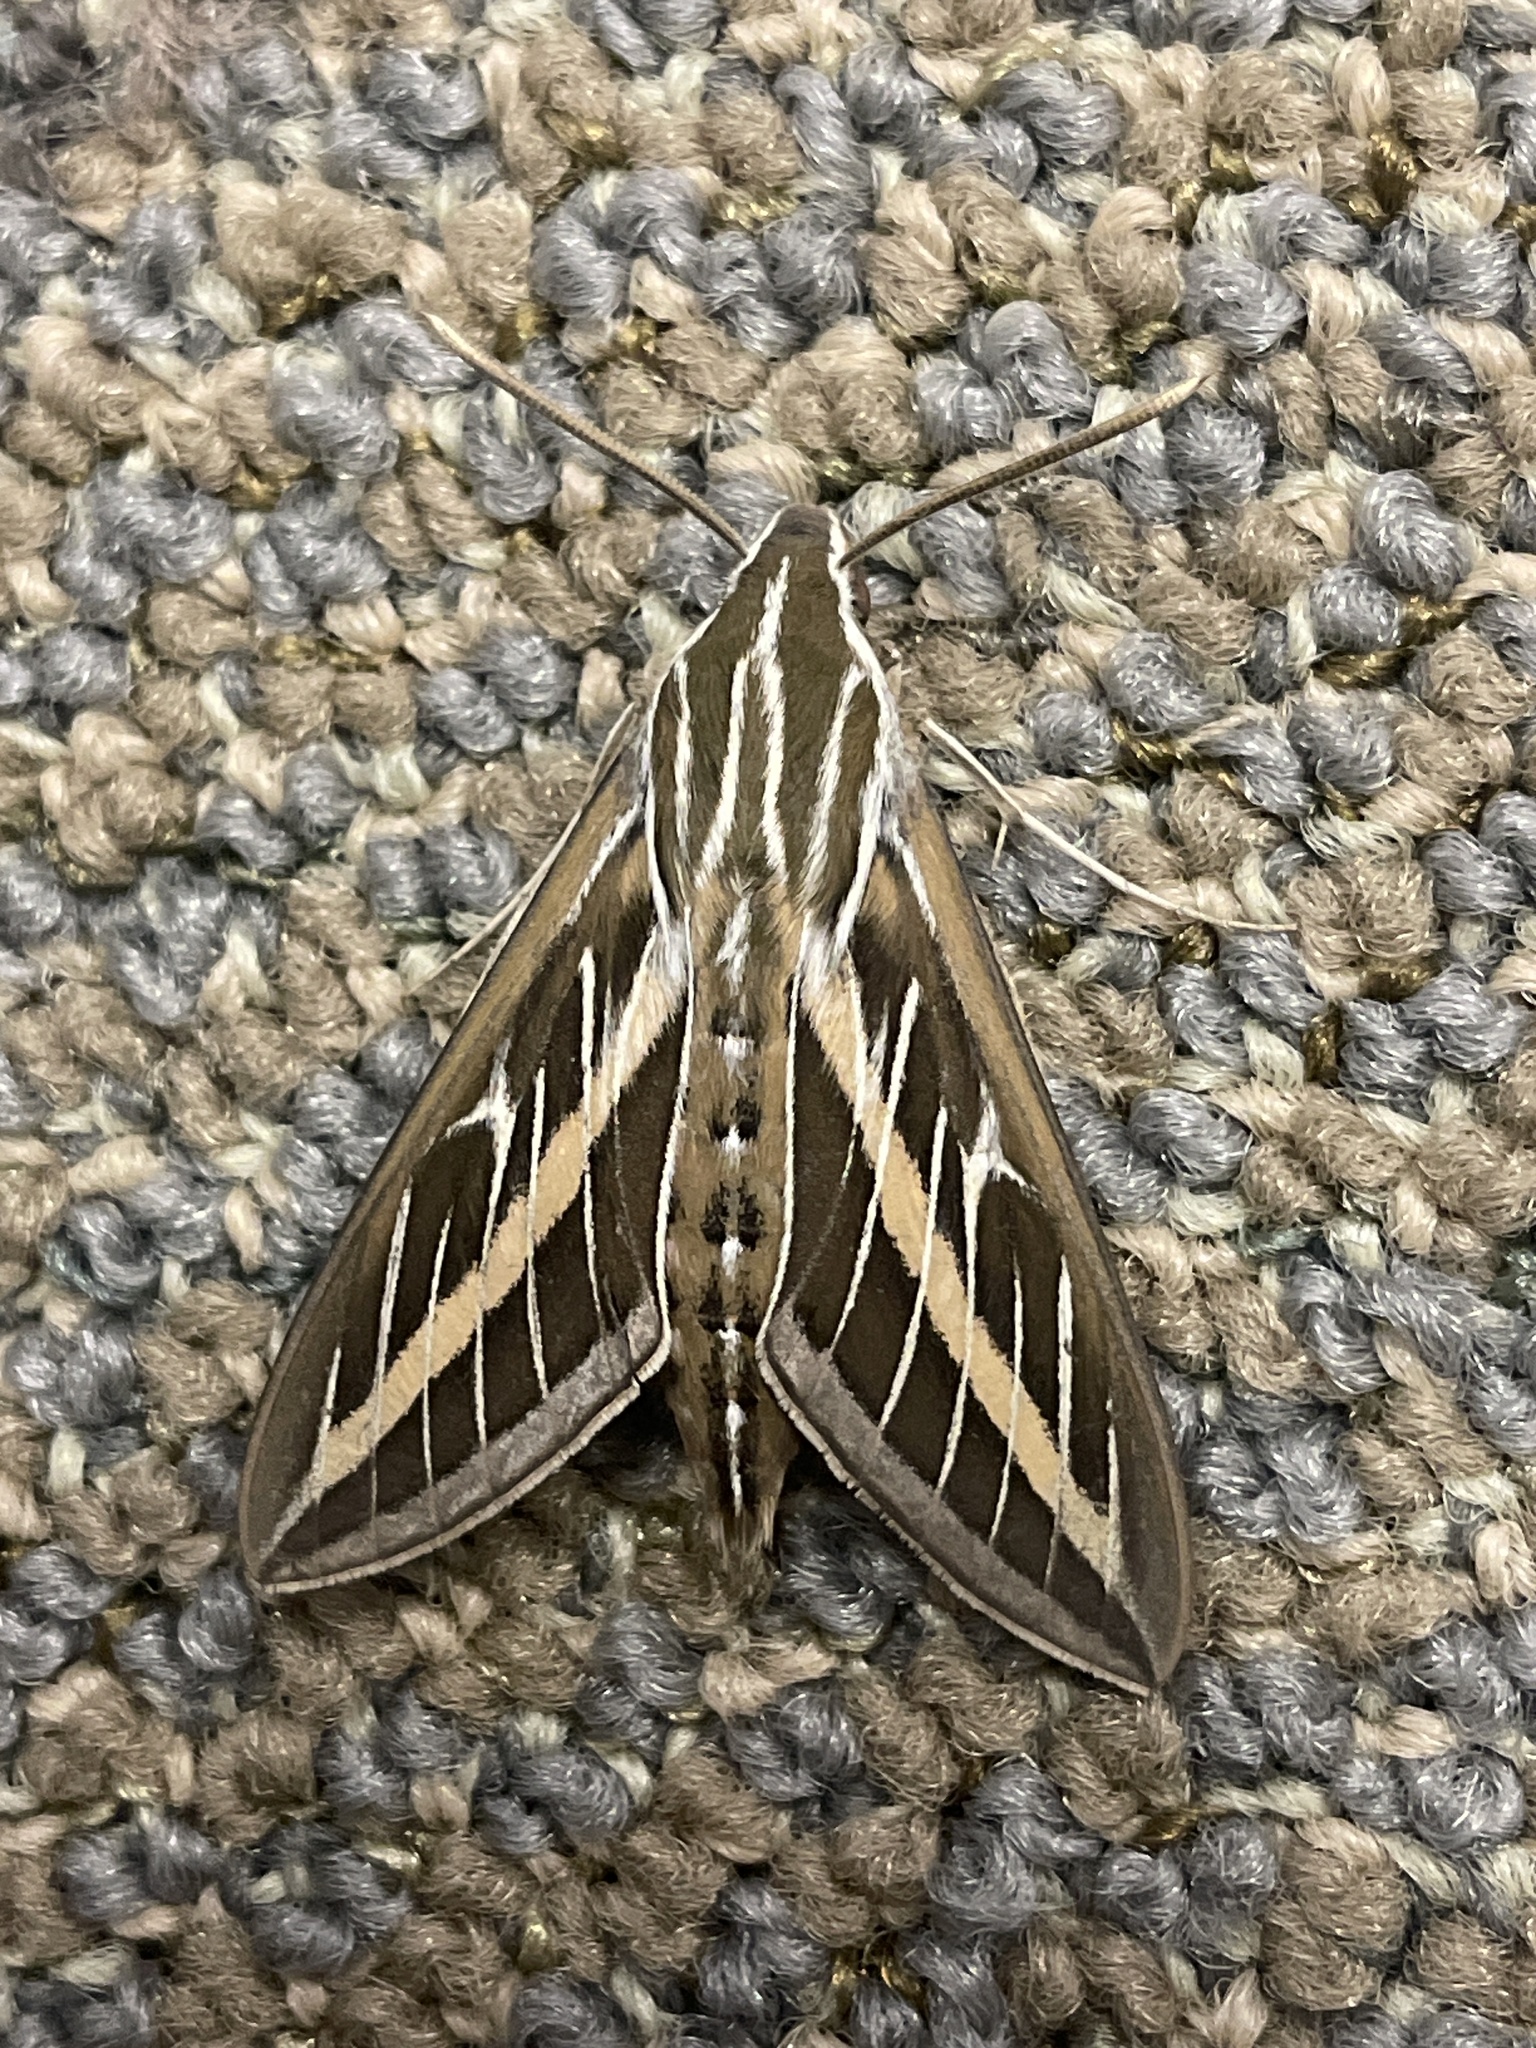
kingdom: Animalia
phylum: Arthropoda
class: Insecta
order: Lepidoptera
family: Sphingidae
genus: Hyles
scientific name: Hyles lineata
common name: White-lined sphinx
